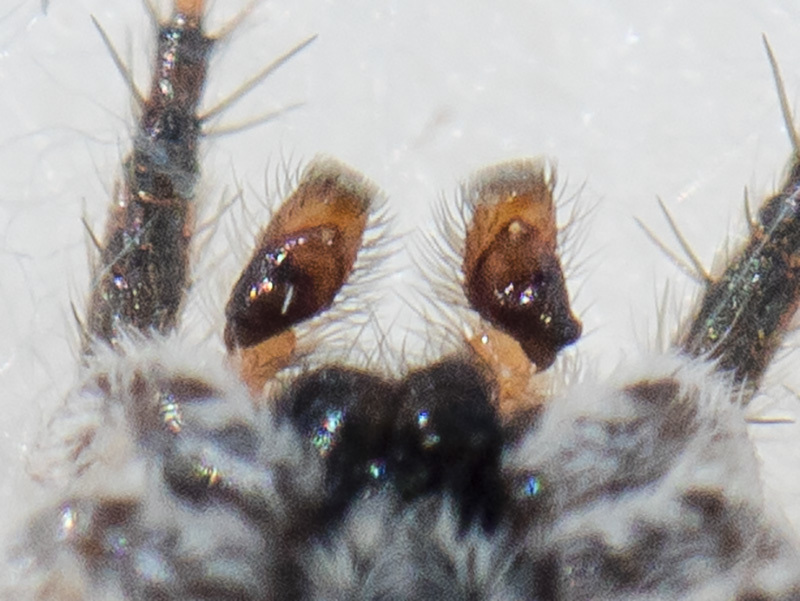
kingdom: Animalia
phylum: Arthropoda
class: Arachnida
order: Araneae
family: Salticidae
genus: Aelurillus
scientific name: Aelurillus andreevae
